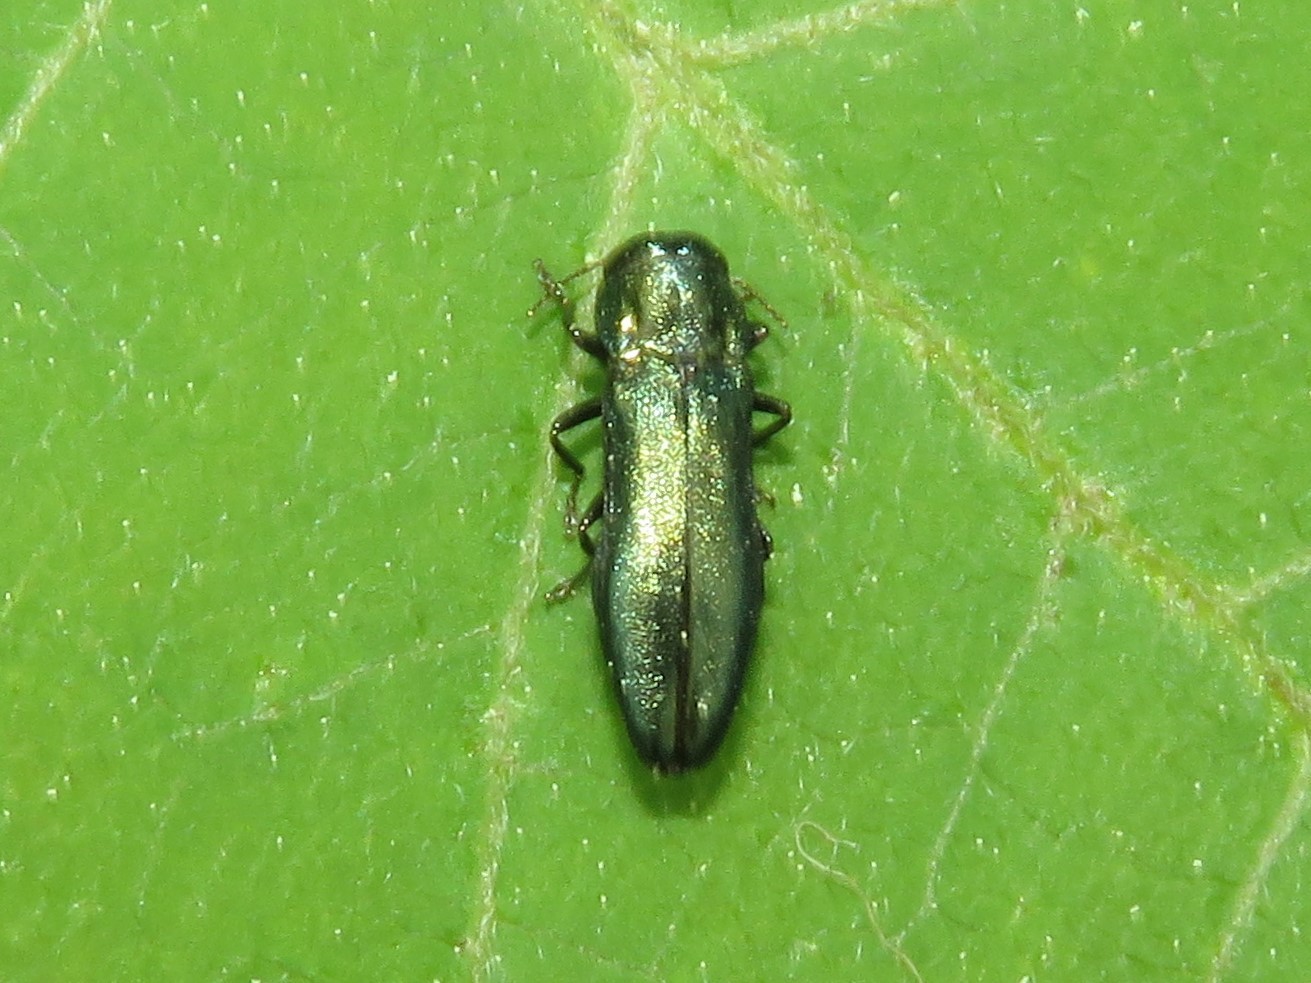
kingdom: Animalia
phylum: Arthropoda
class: Insecta
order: Coleoptera
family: Buprestidae
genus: Agrilus
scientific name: Agrilus cyanescens
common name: Bluish borer beetle
